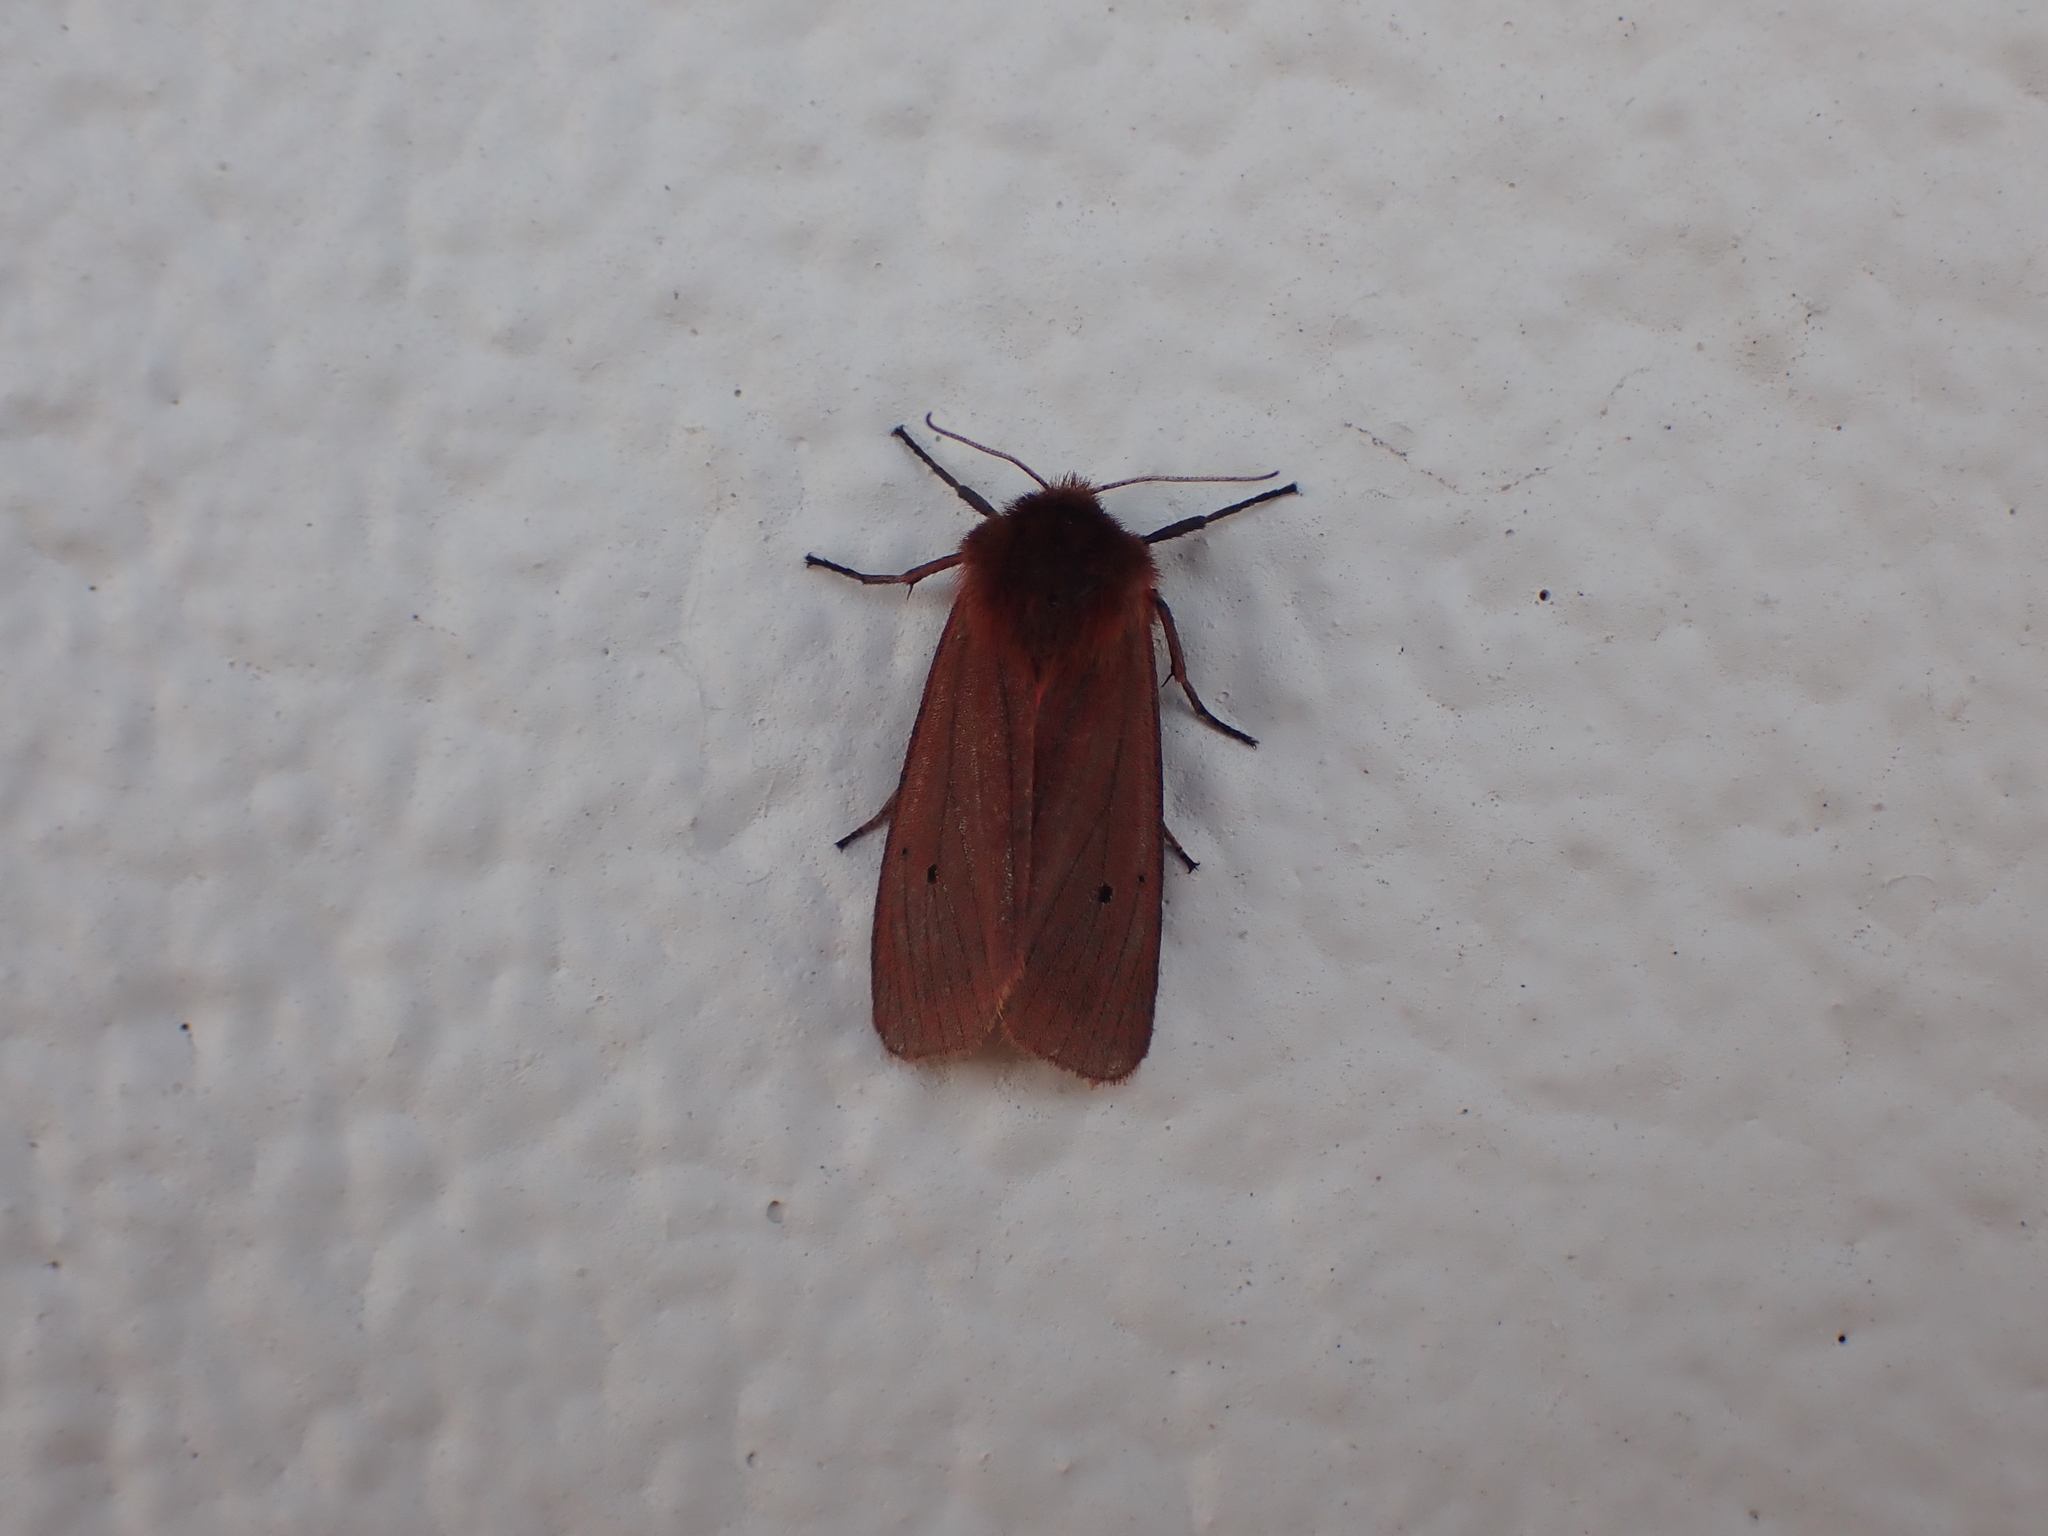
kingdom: Animalia
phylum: Arthropoda
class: Insecta
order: Lepidoptera
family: Erebidae
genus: Phragmatobia
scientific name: Phragmatobia fuliginosa
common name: Ruby tiger
